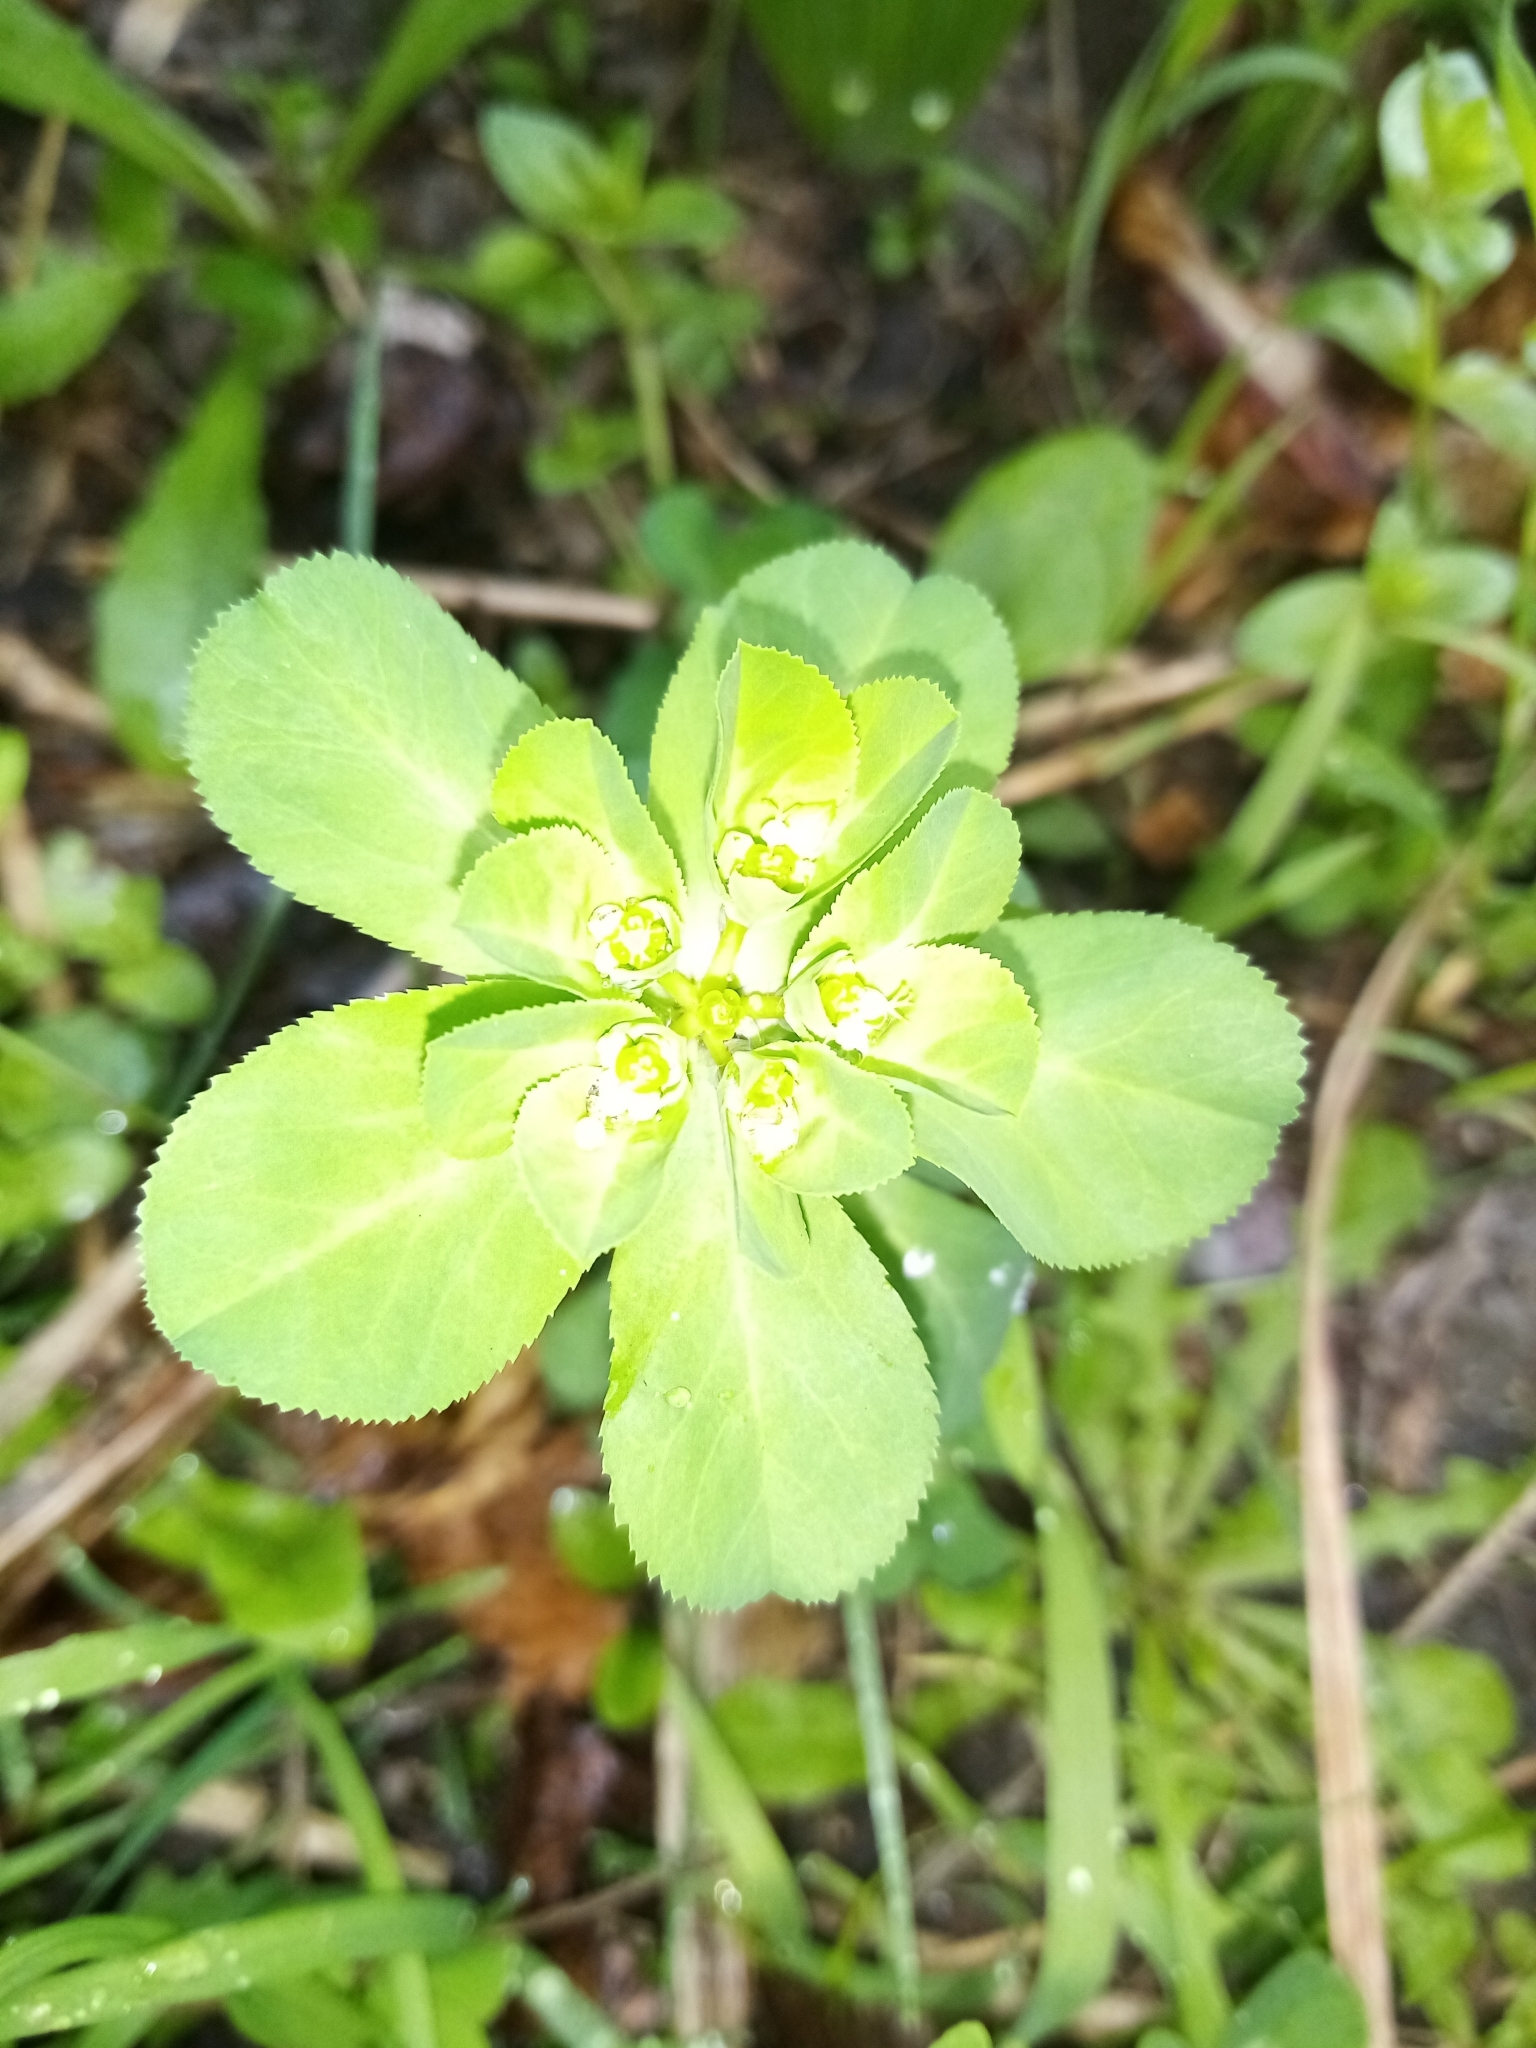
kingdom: Plantae
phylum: Tracheophyta
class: Magnoliopsida
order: Malpighiales
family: Euphorbiaceae
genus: Euphorbia
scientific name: Euphorbia helioscopia
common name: Sun spurge
